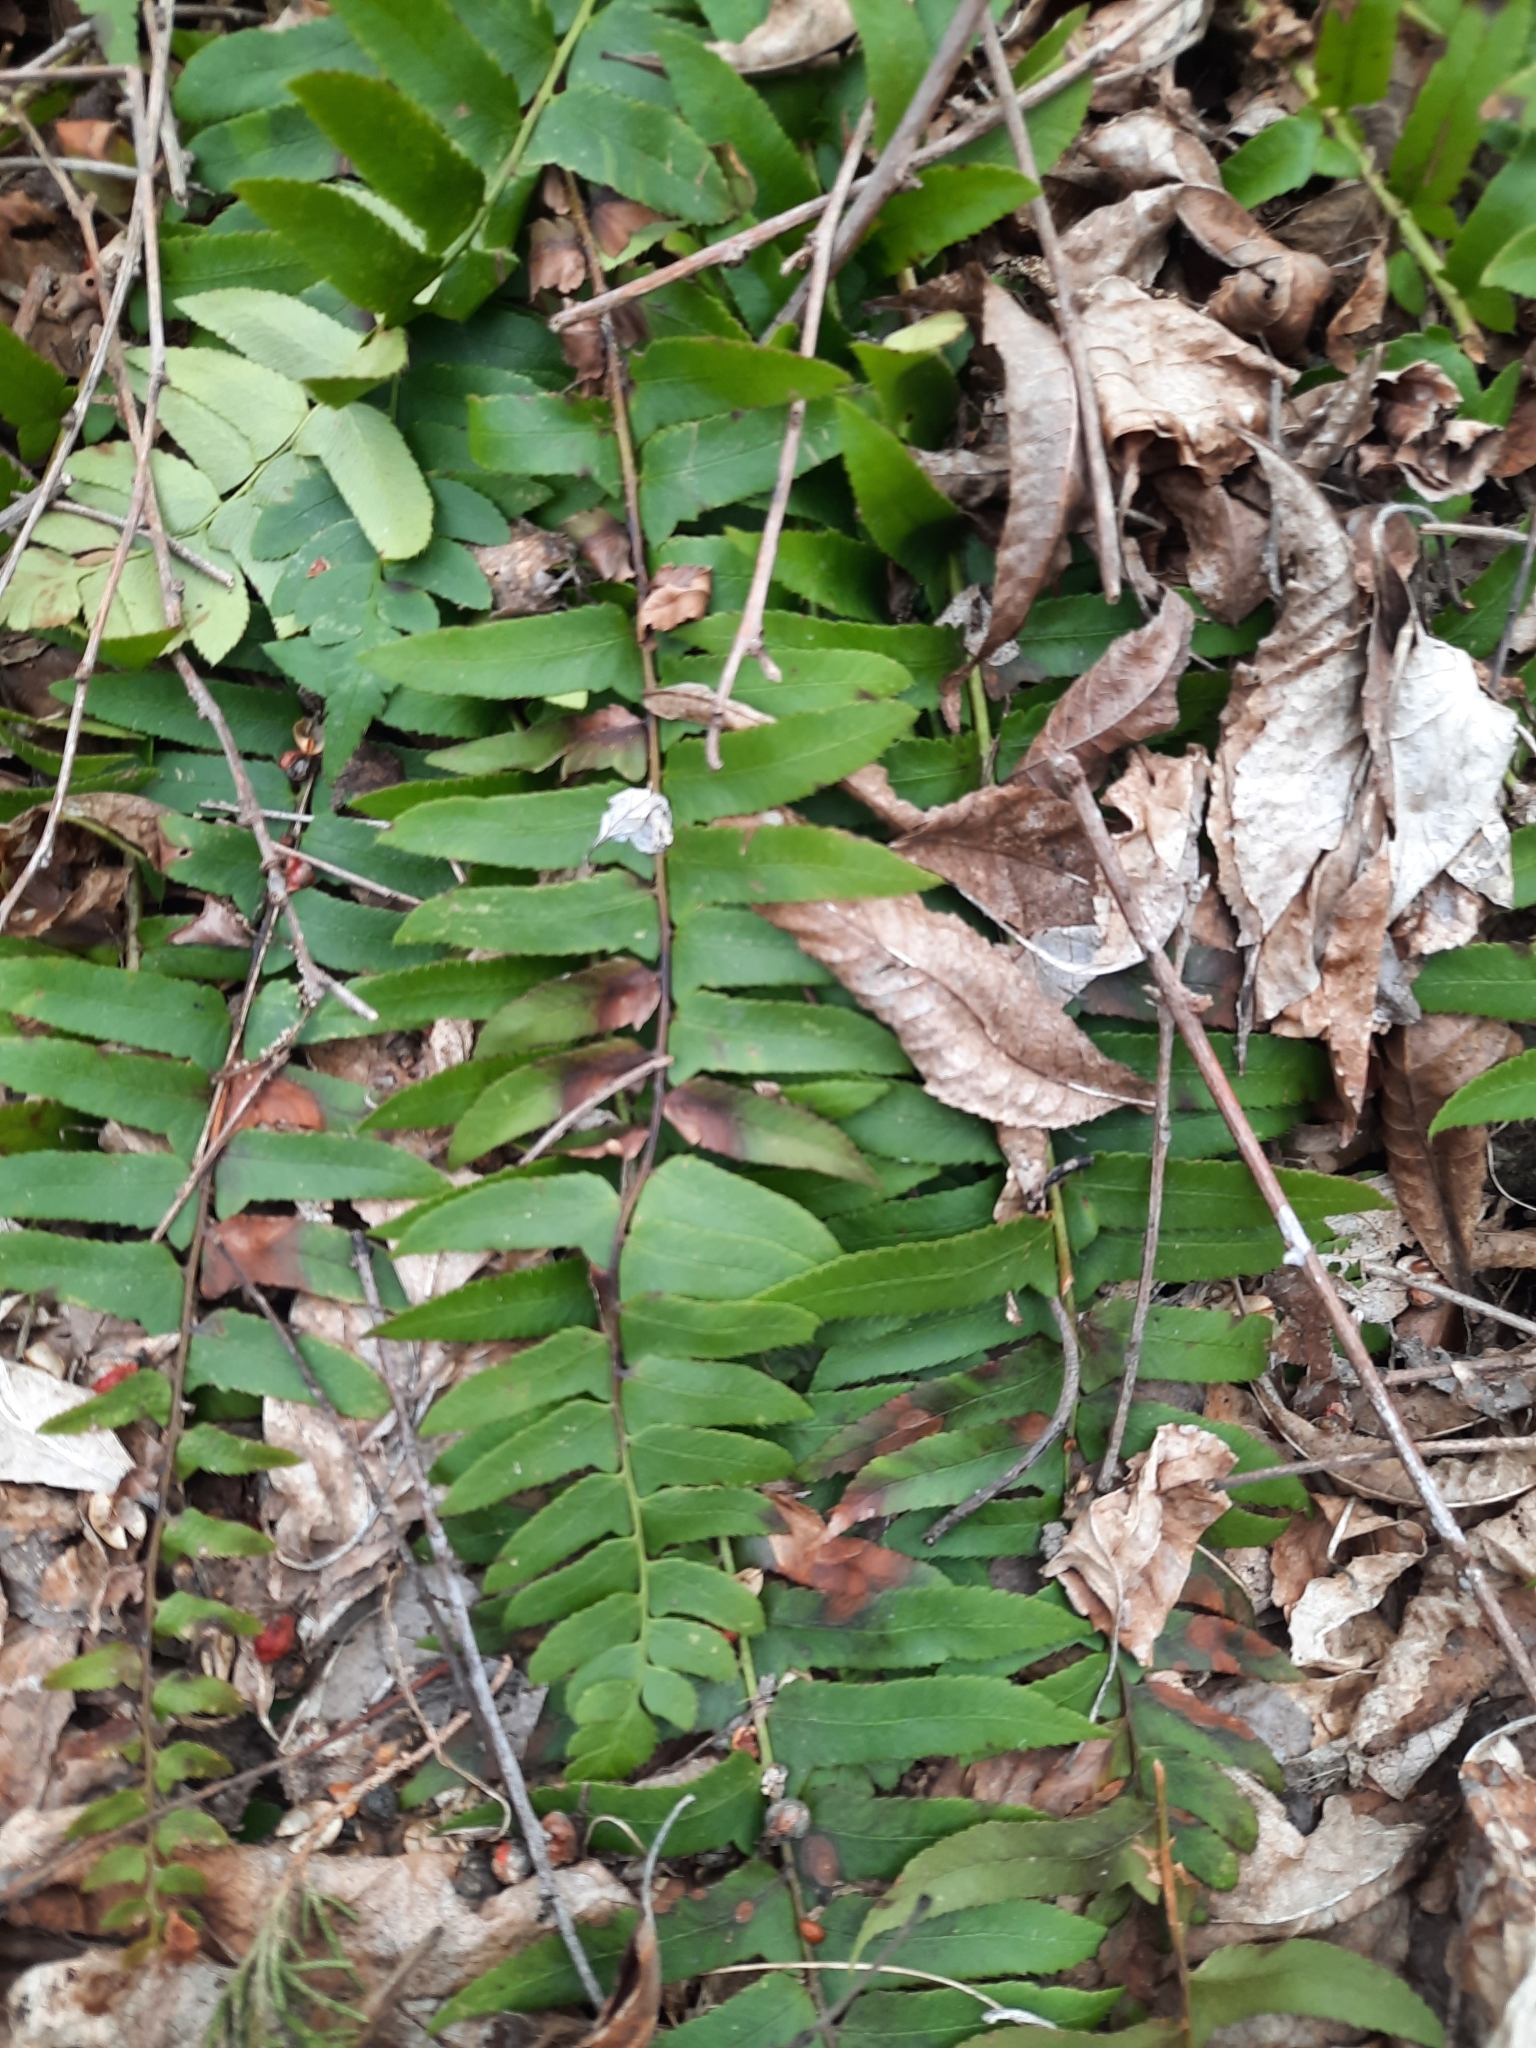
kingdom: Plantae
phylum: Tracheophyta
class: Polypodiopsida
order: Polypodiales
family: Dryopteridaceae
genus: Polystichum
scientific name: Polystichum acrostichoides
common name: Christmas fern
